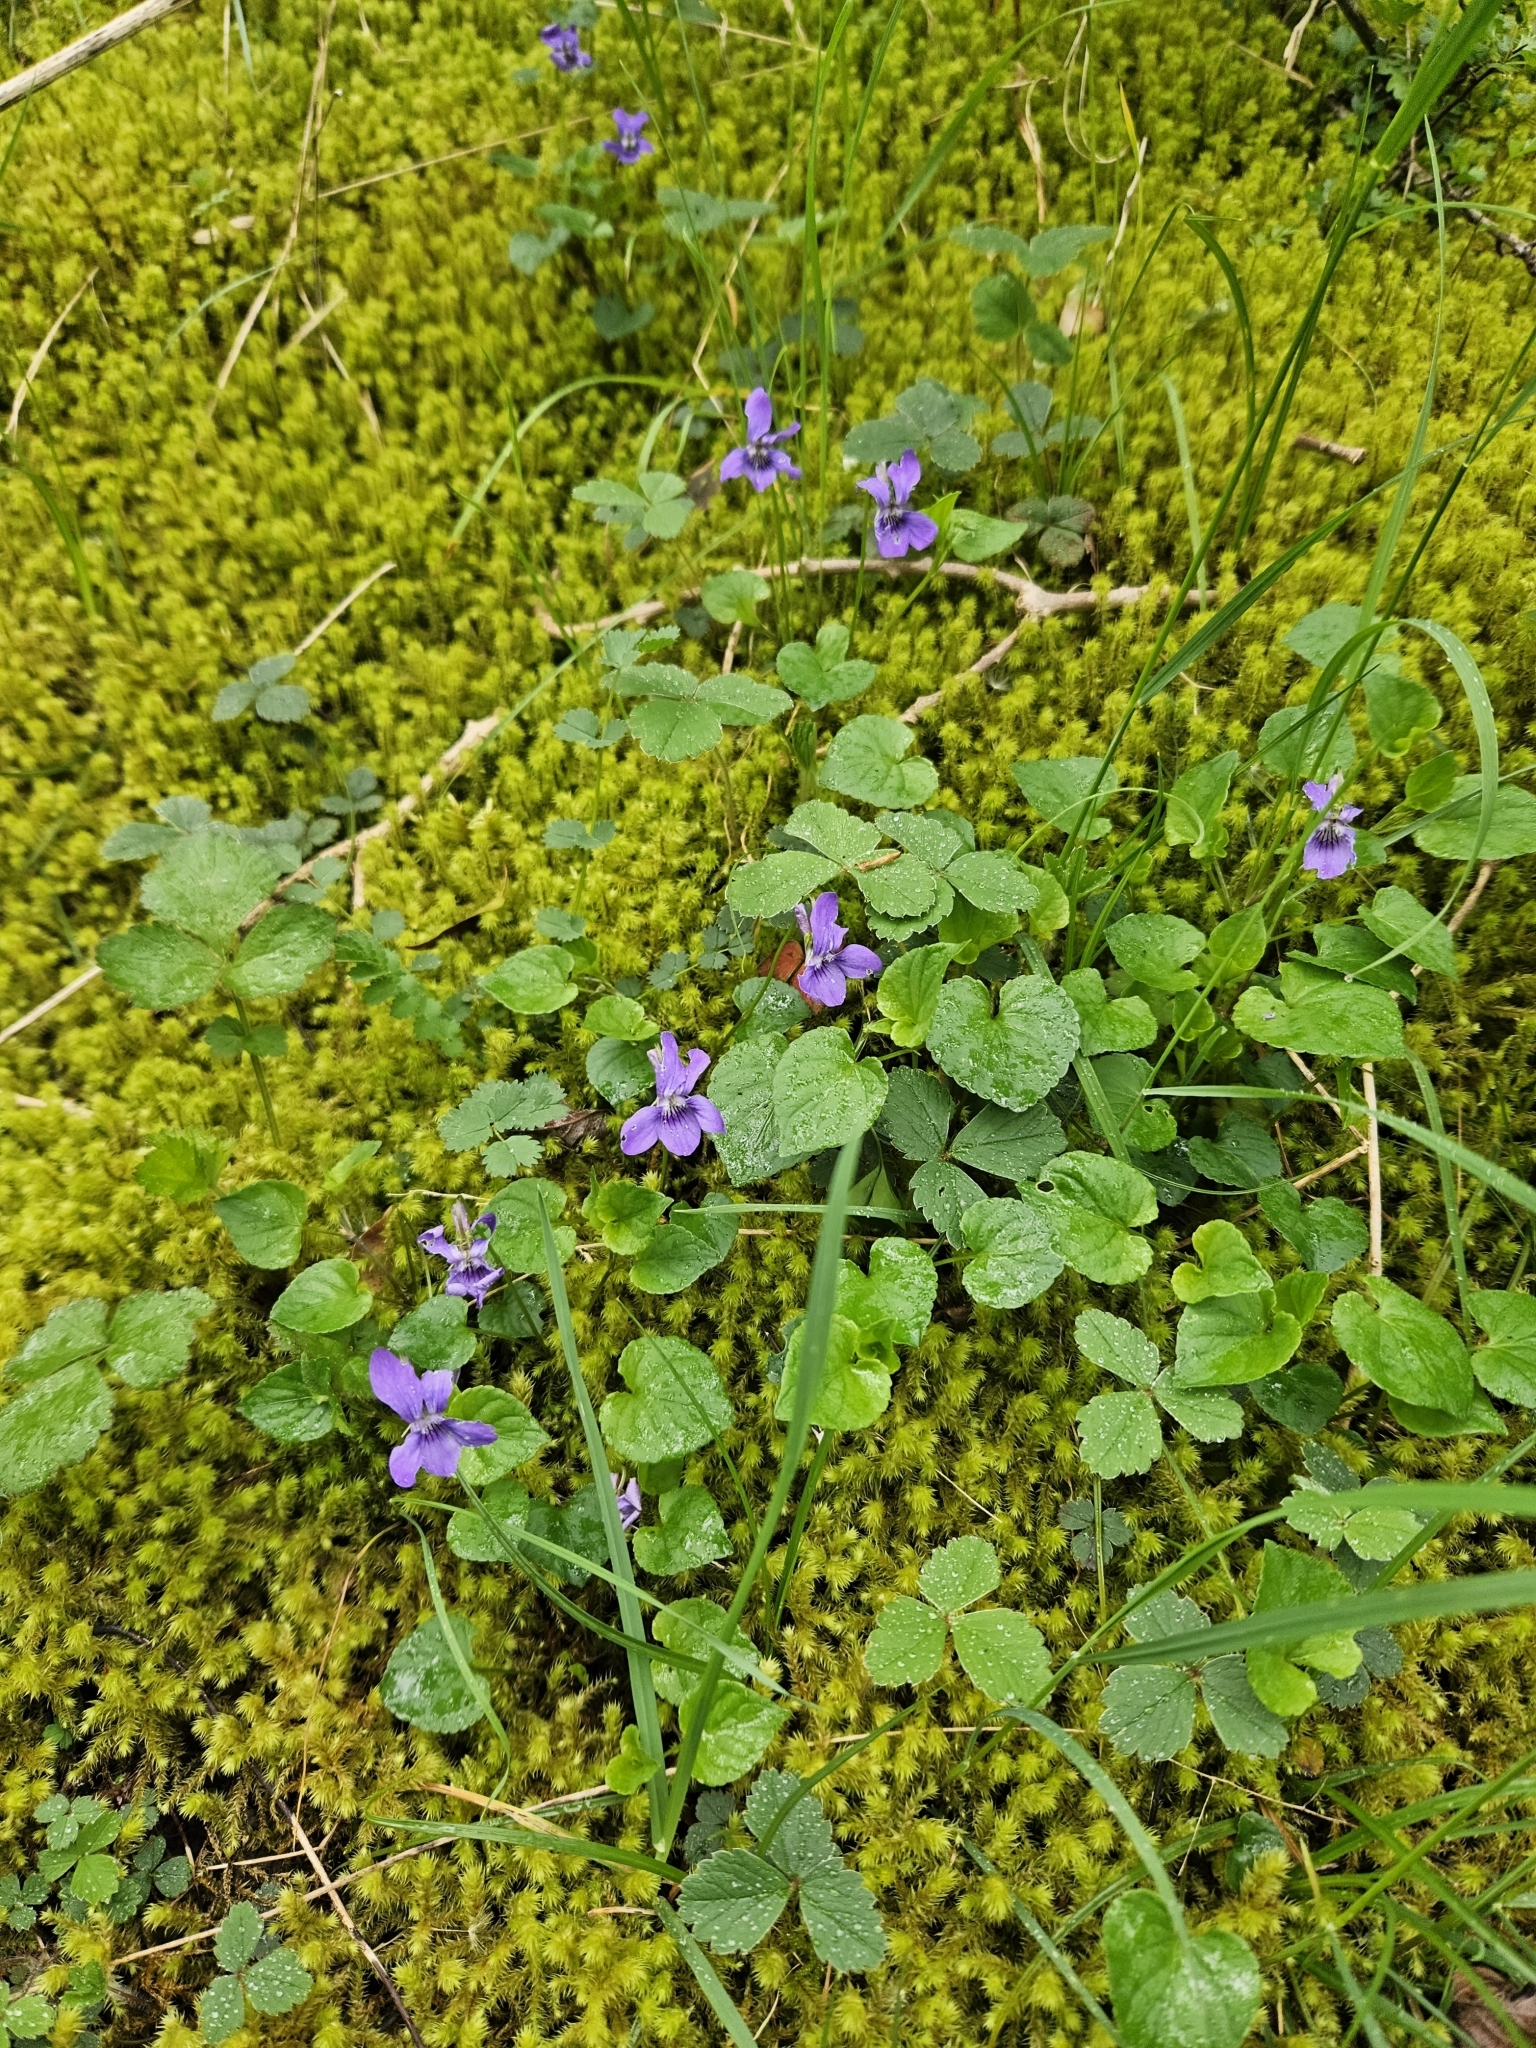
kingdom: Plantae
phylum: Bryophyta
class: Bryopsida
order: Hypnales
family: Hylocomiaceae
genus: Hylocomiadelphus
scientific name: Hylocomiadelphus triquetrus
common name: Rough goose neck moss
